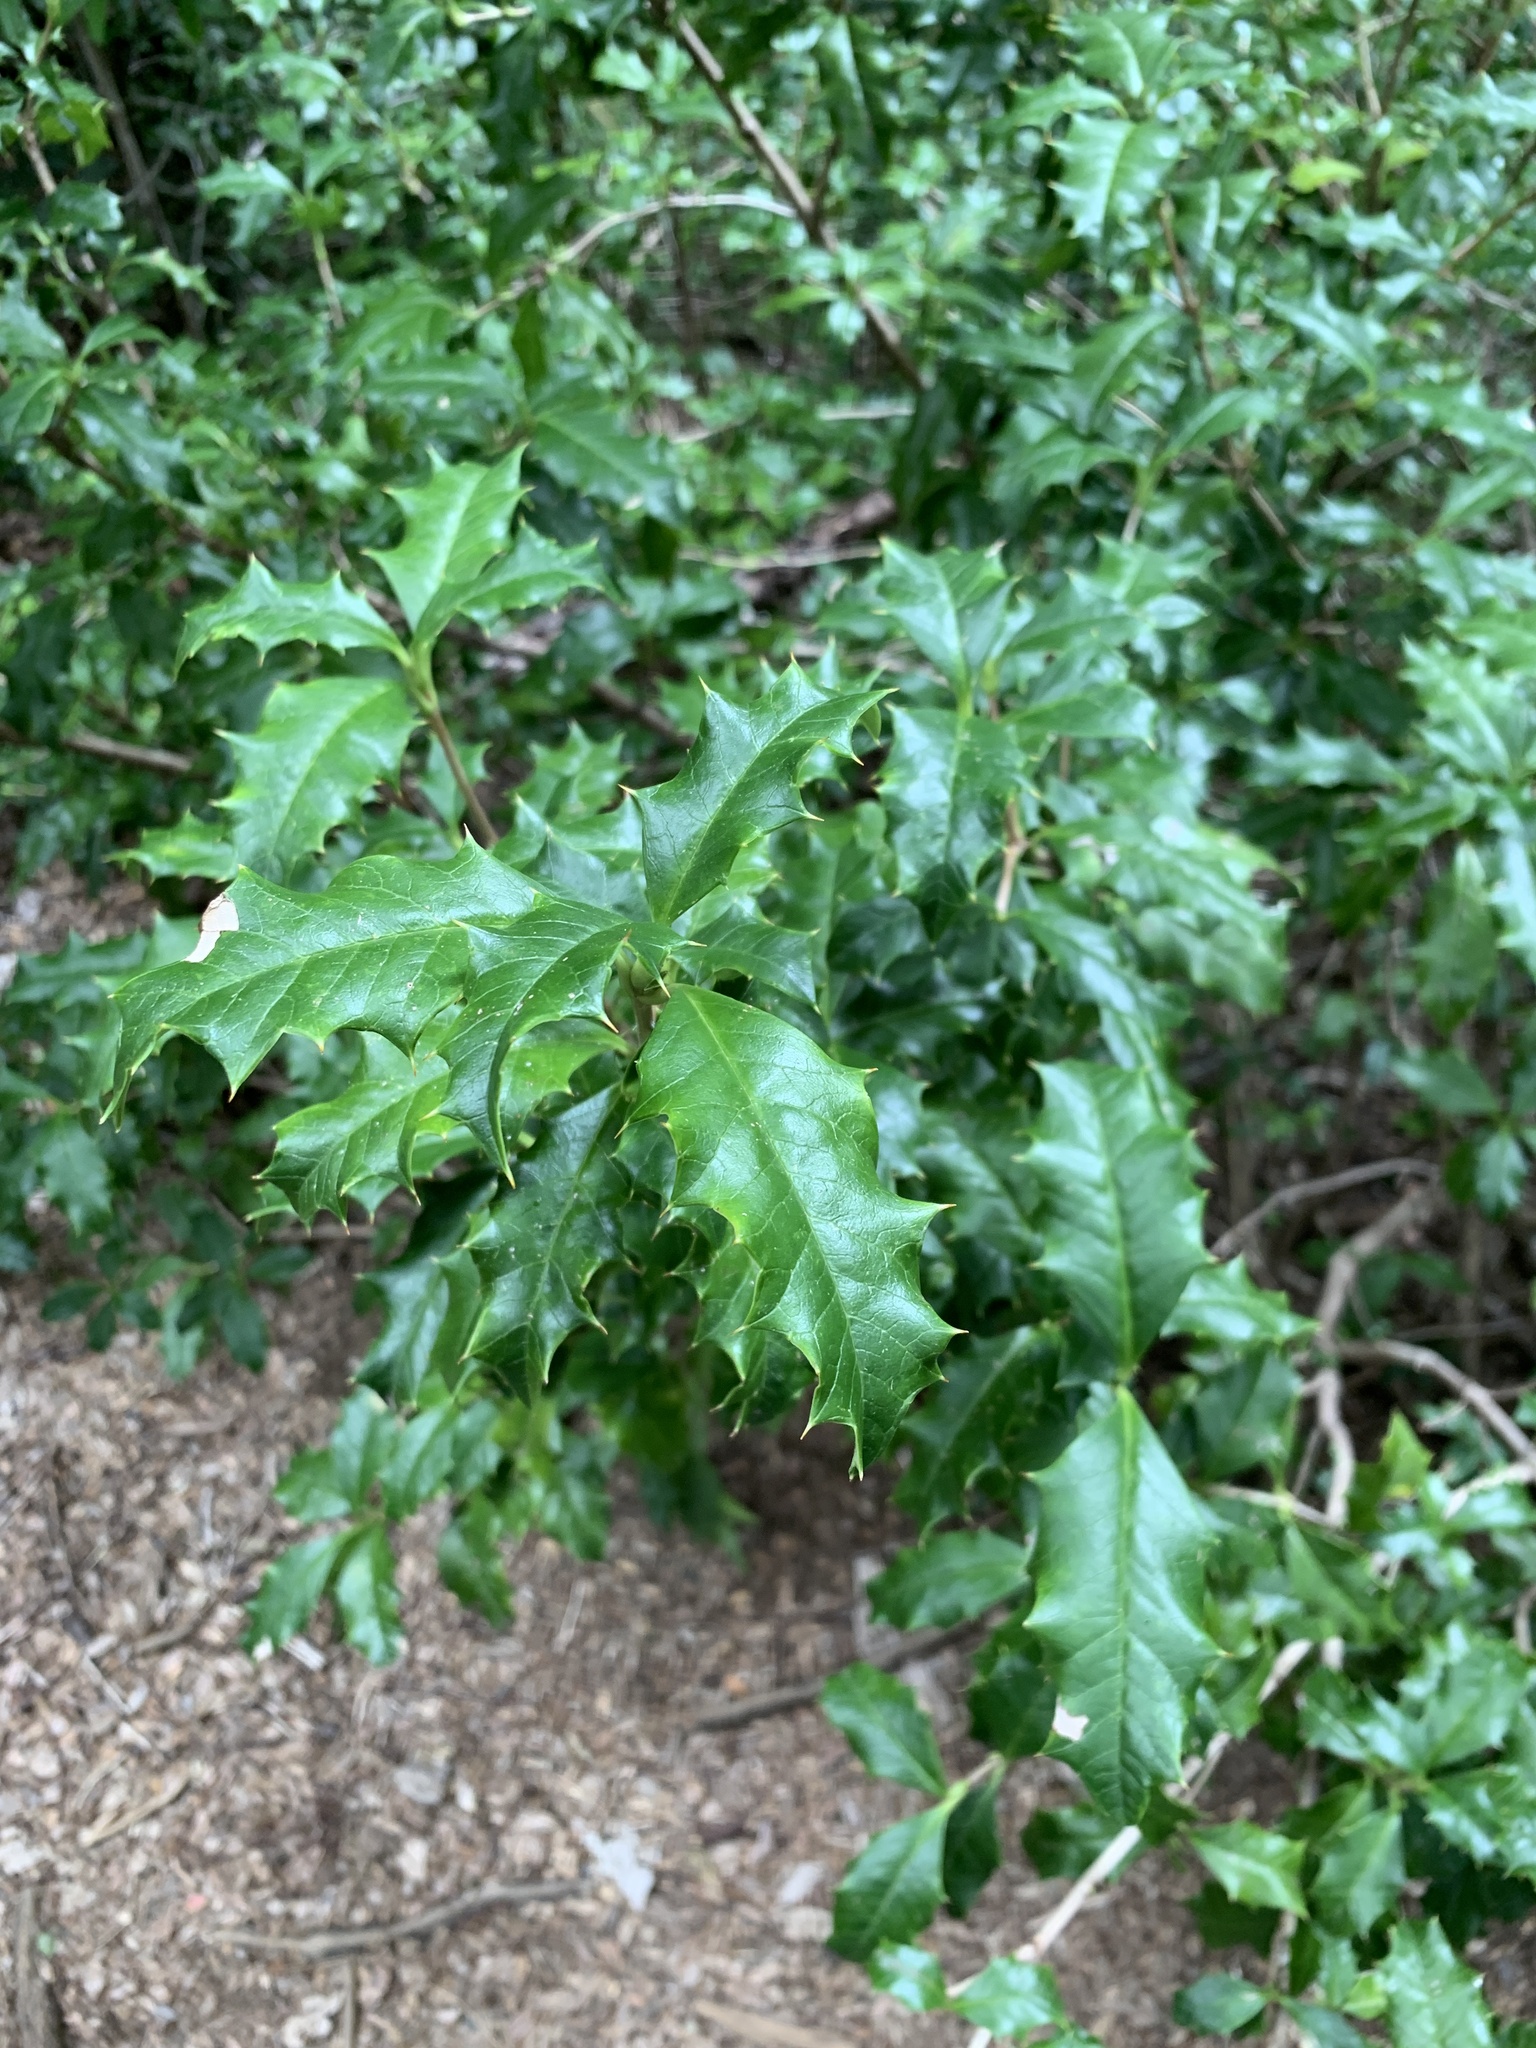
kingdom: Plantae
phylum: Tracheophyta
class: Magnoliopsida
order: Bruniales
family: Columelliaceae
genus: Desfontainia
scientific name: Desfontainia fulgens
